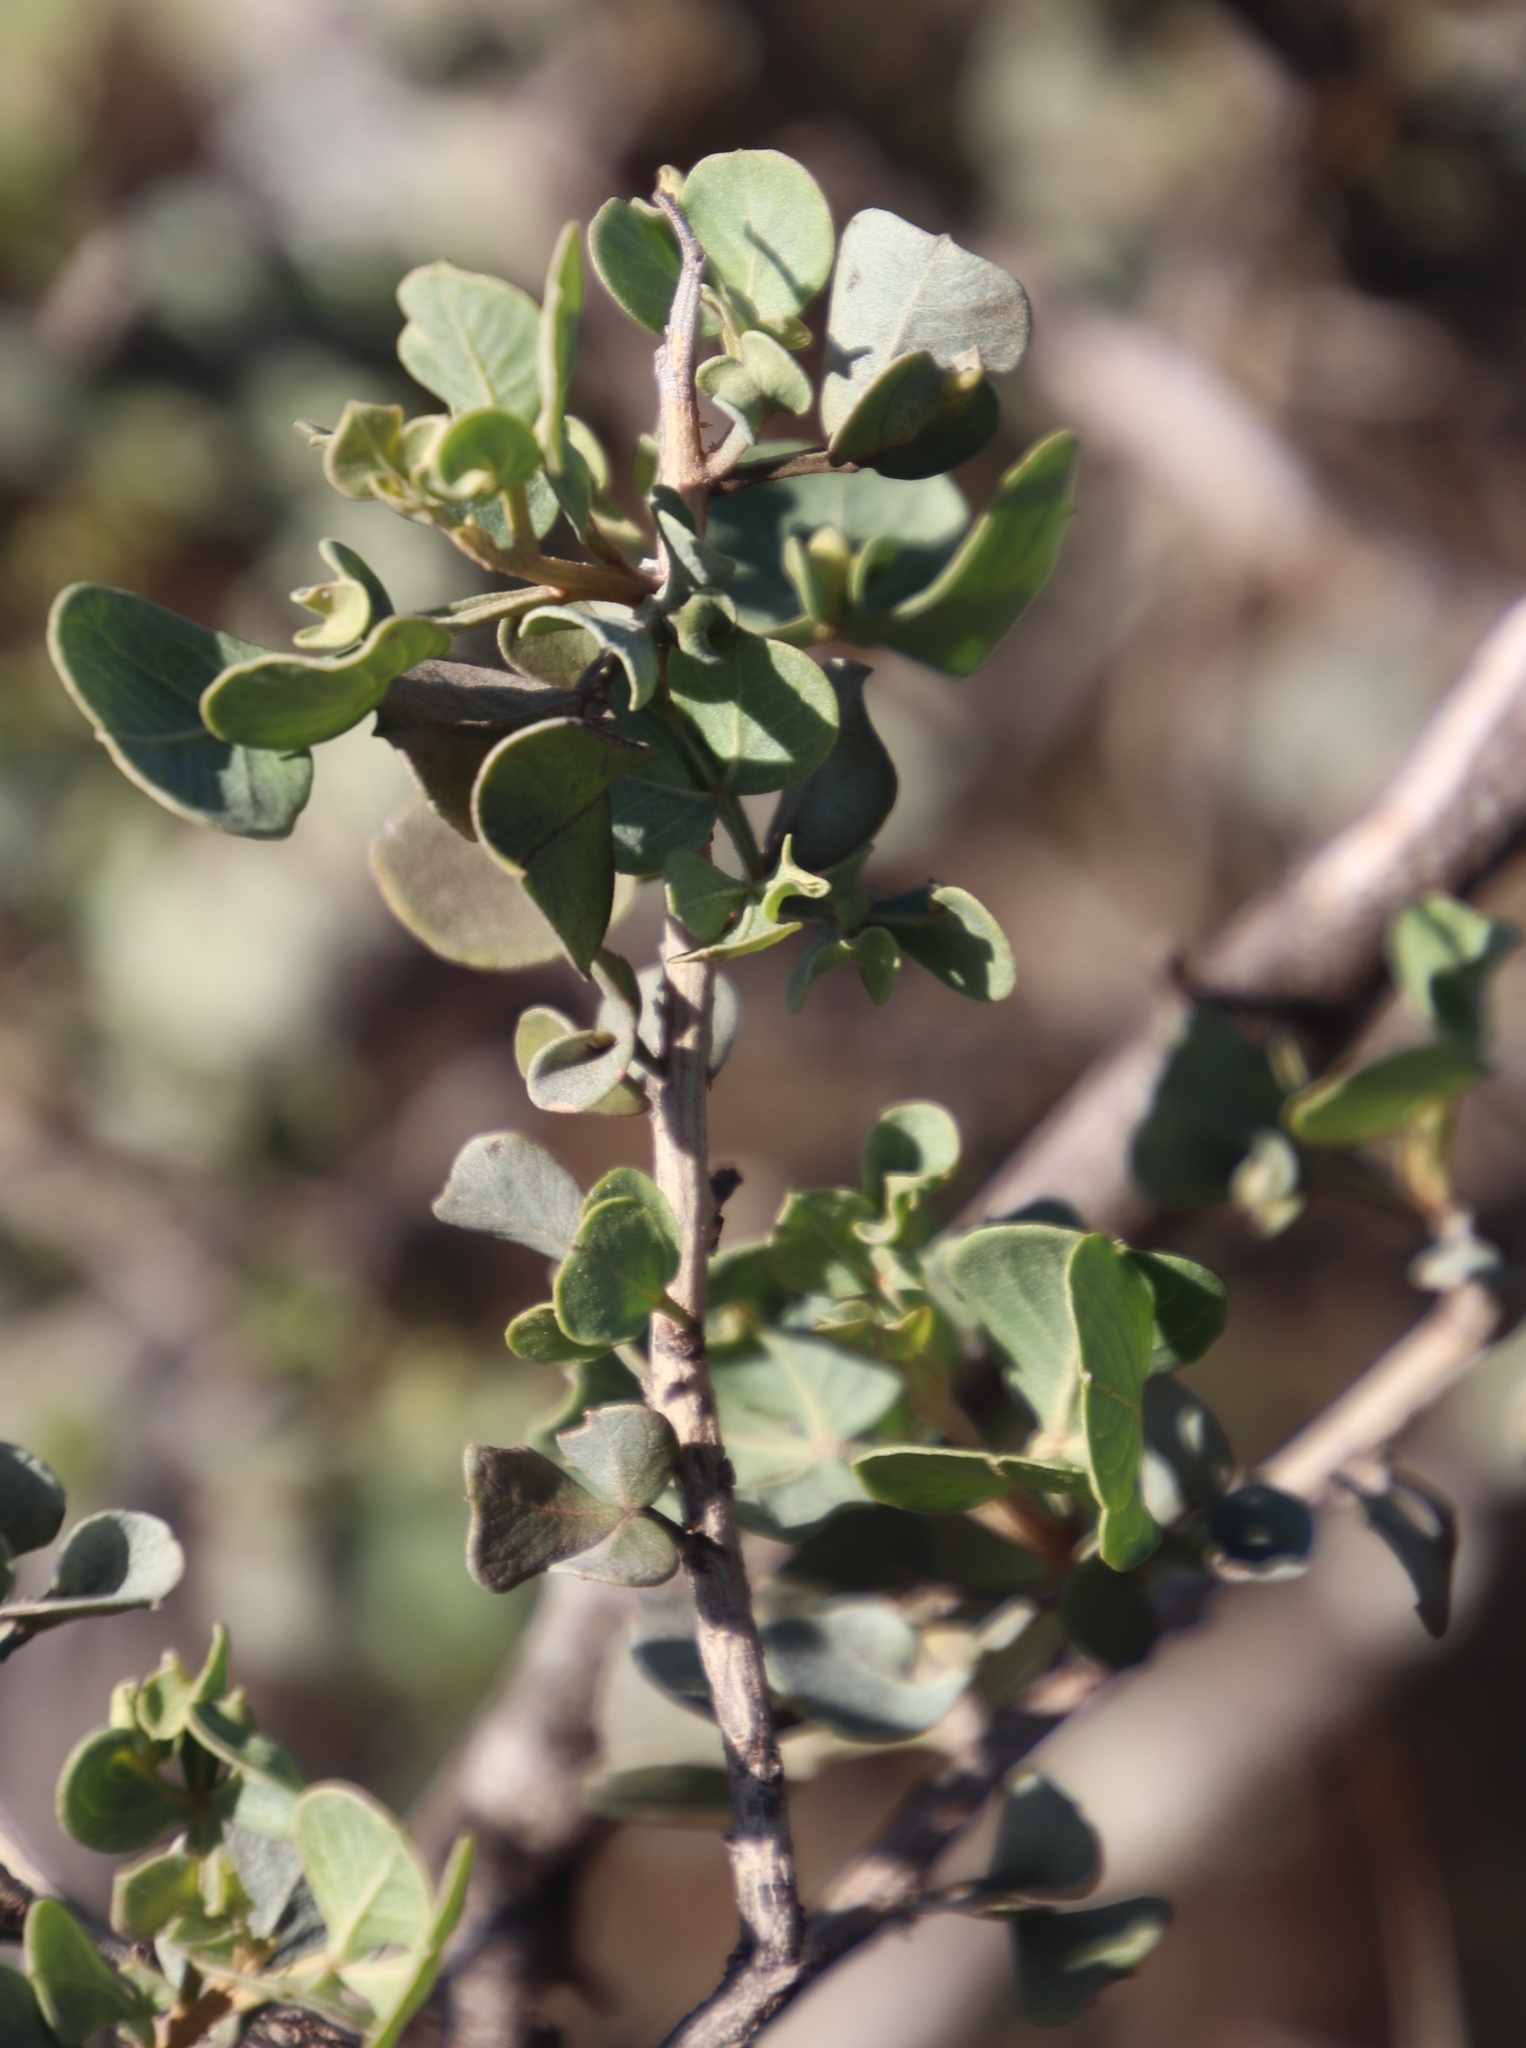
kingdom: Plantae
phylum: Tracheophyta
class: Magnoliopsida
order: Sapindales
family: Anacardiaceae
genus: Searsia
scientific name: Searsia glauca
